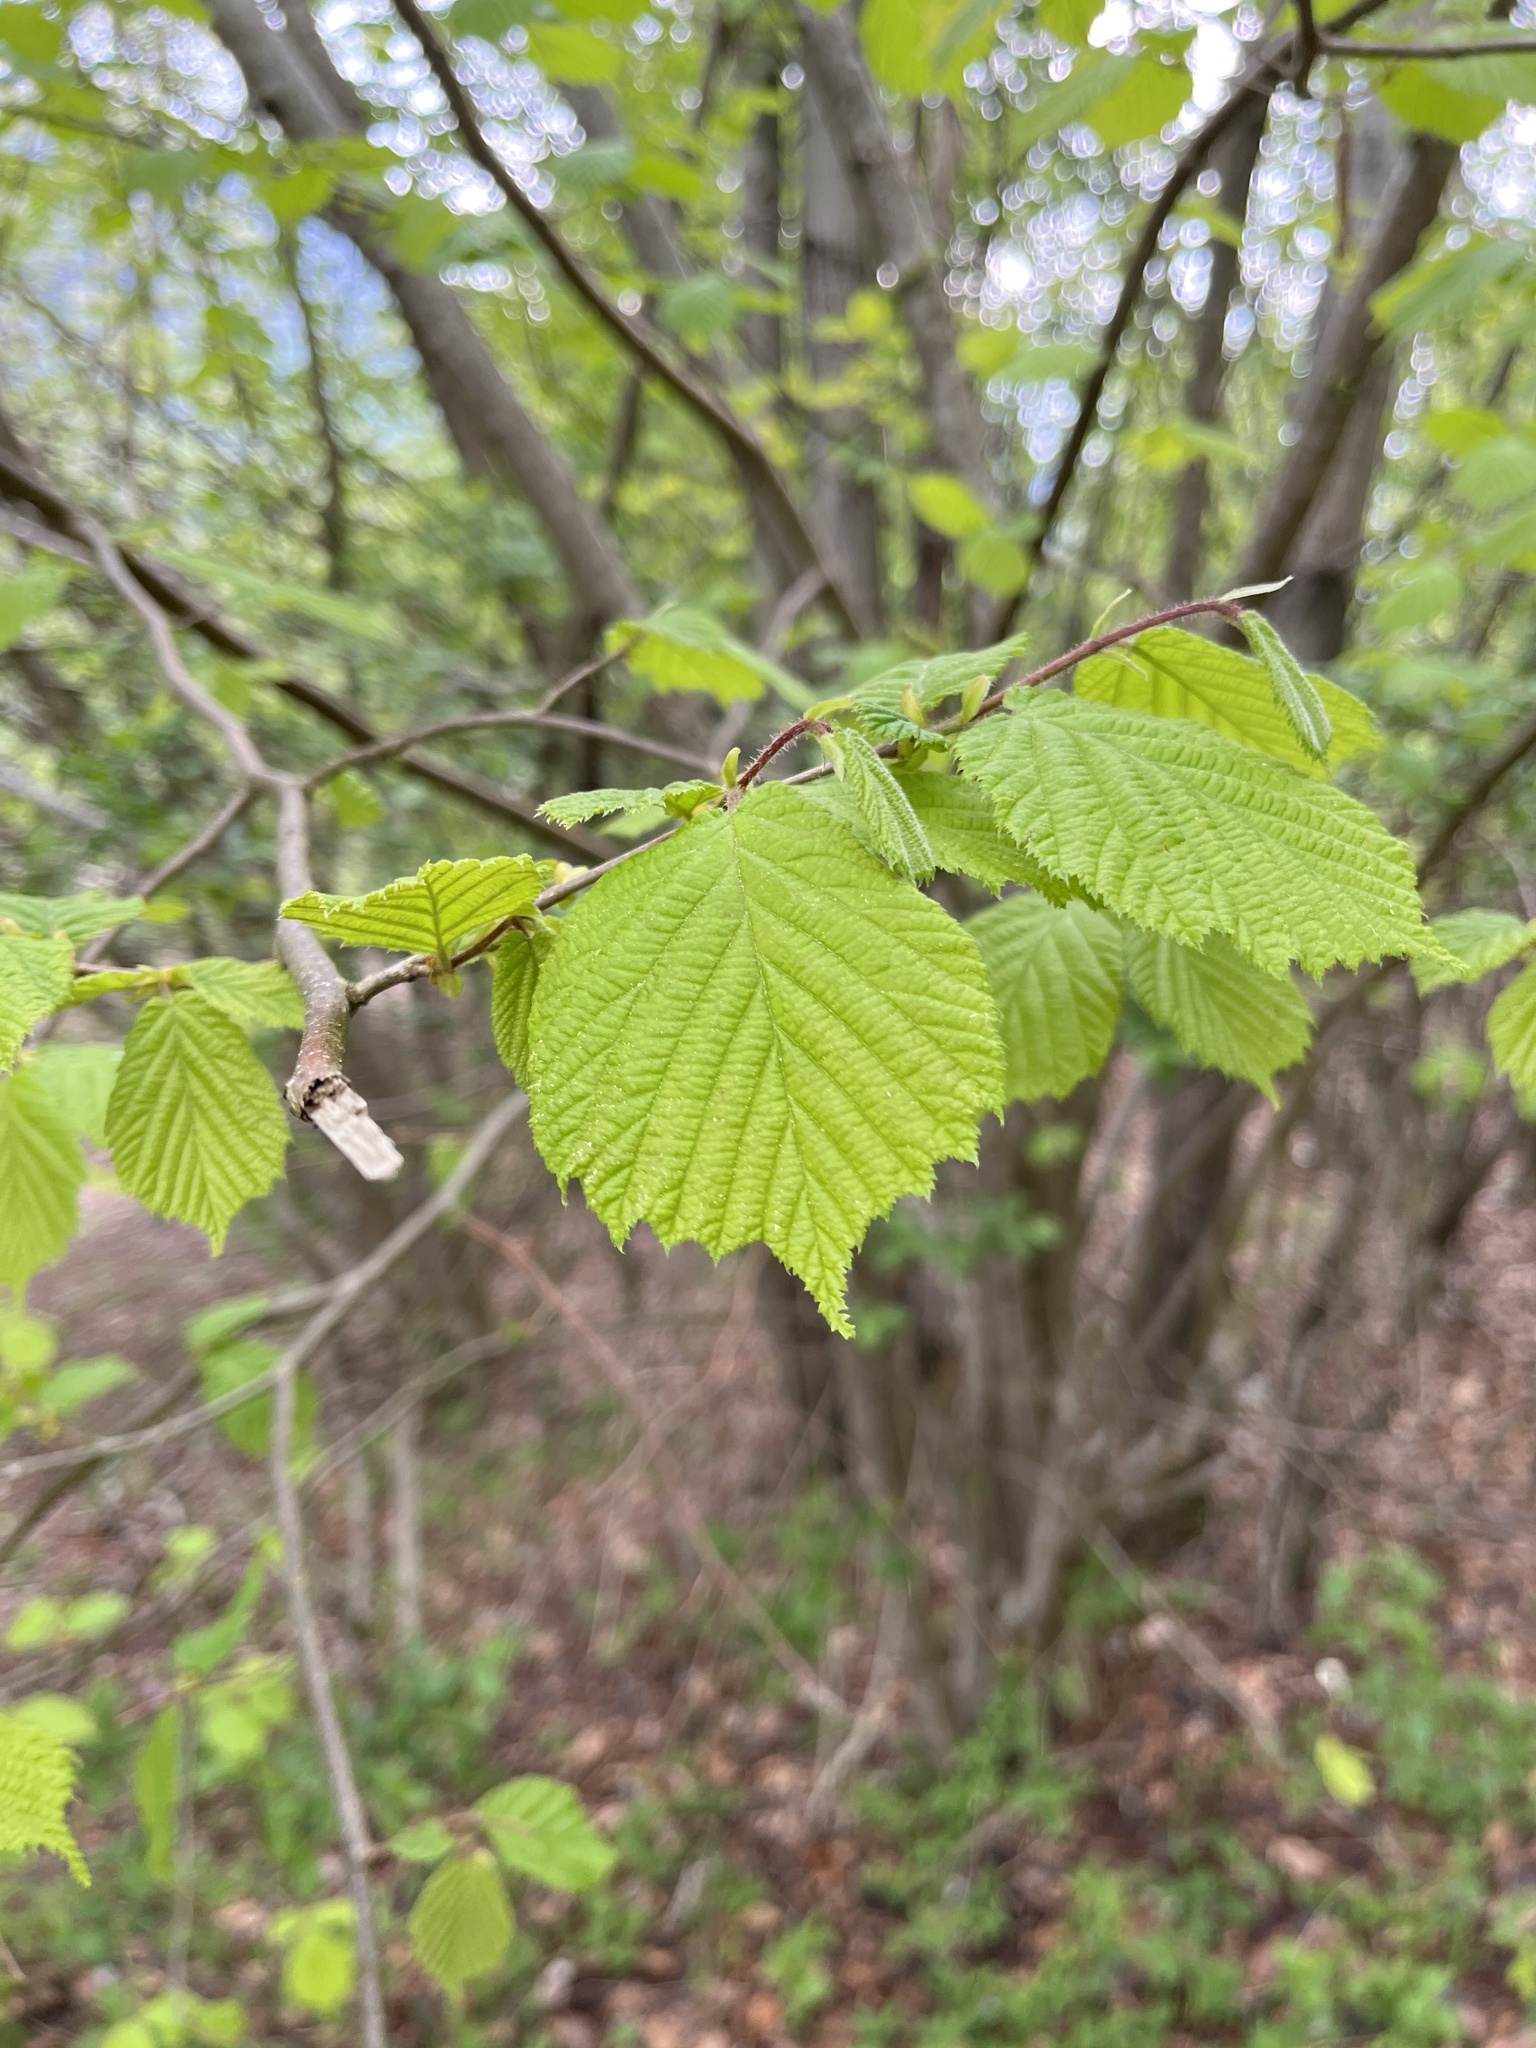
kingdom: Plantae
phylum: Tracheophyta
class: Magnoliopsida
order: Fagales
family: Betulaceae
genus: Corylus
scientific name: Corylus avellana
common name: European hazel
